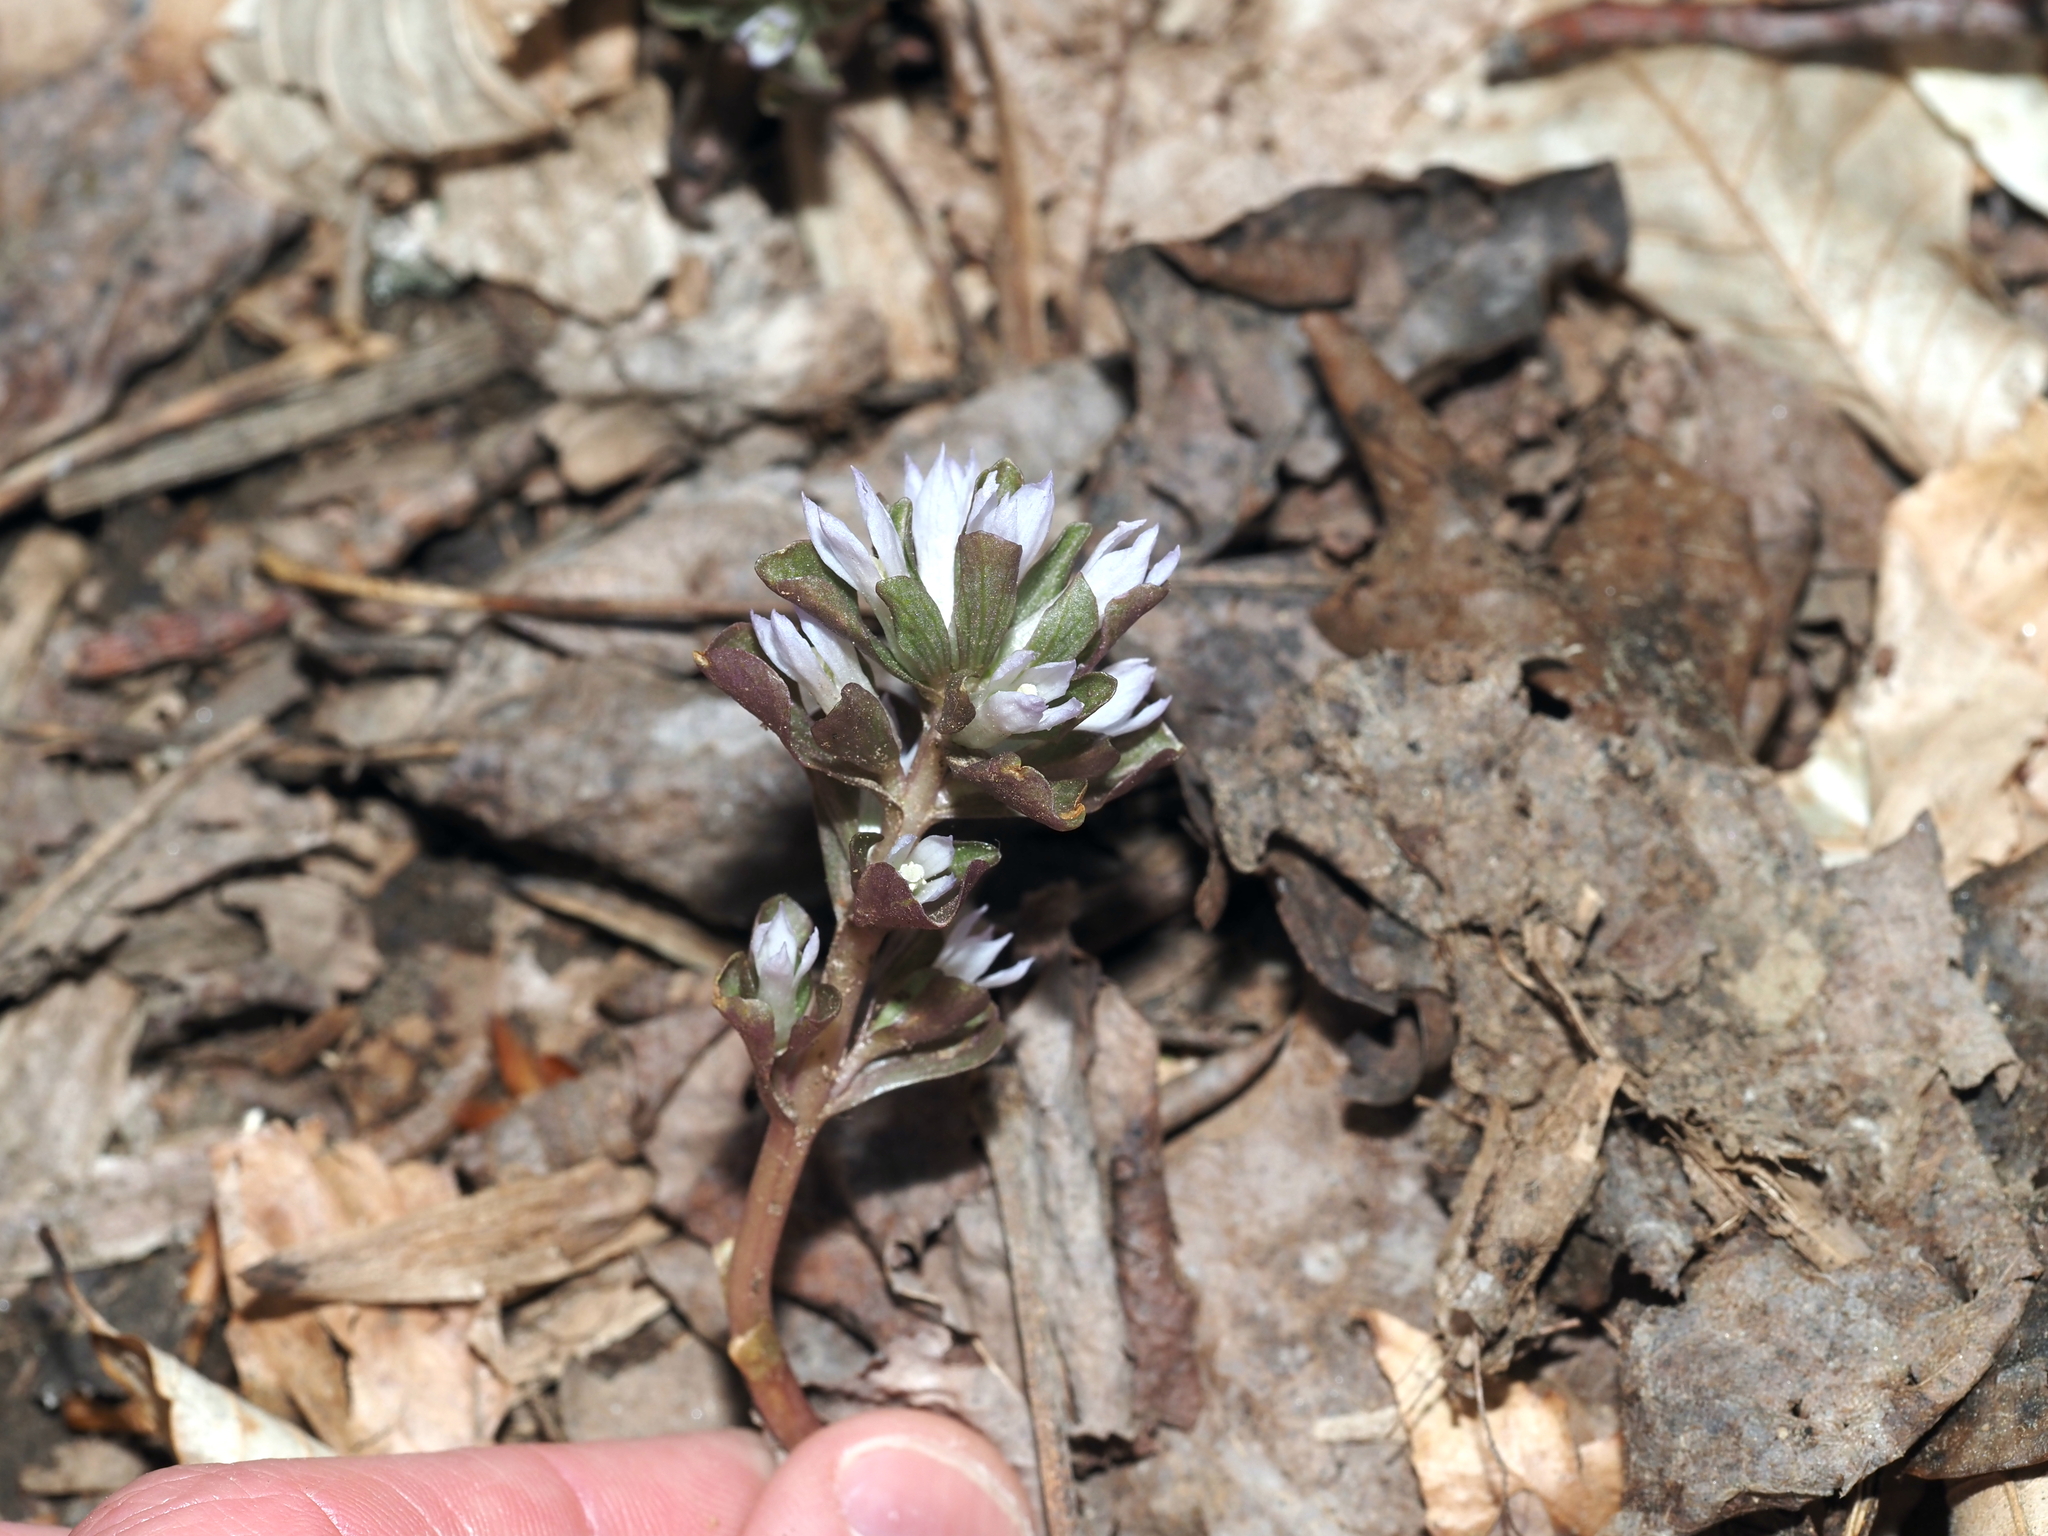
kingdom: Plantae
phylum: Tracheophyta
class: Magnoliopsida
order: Gentianales
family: Gentianaceae
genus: Obolaria
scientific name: Obolaria virginica
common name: Pennywort
